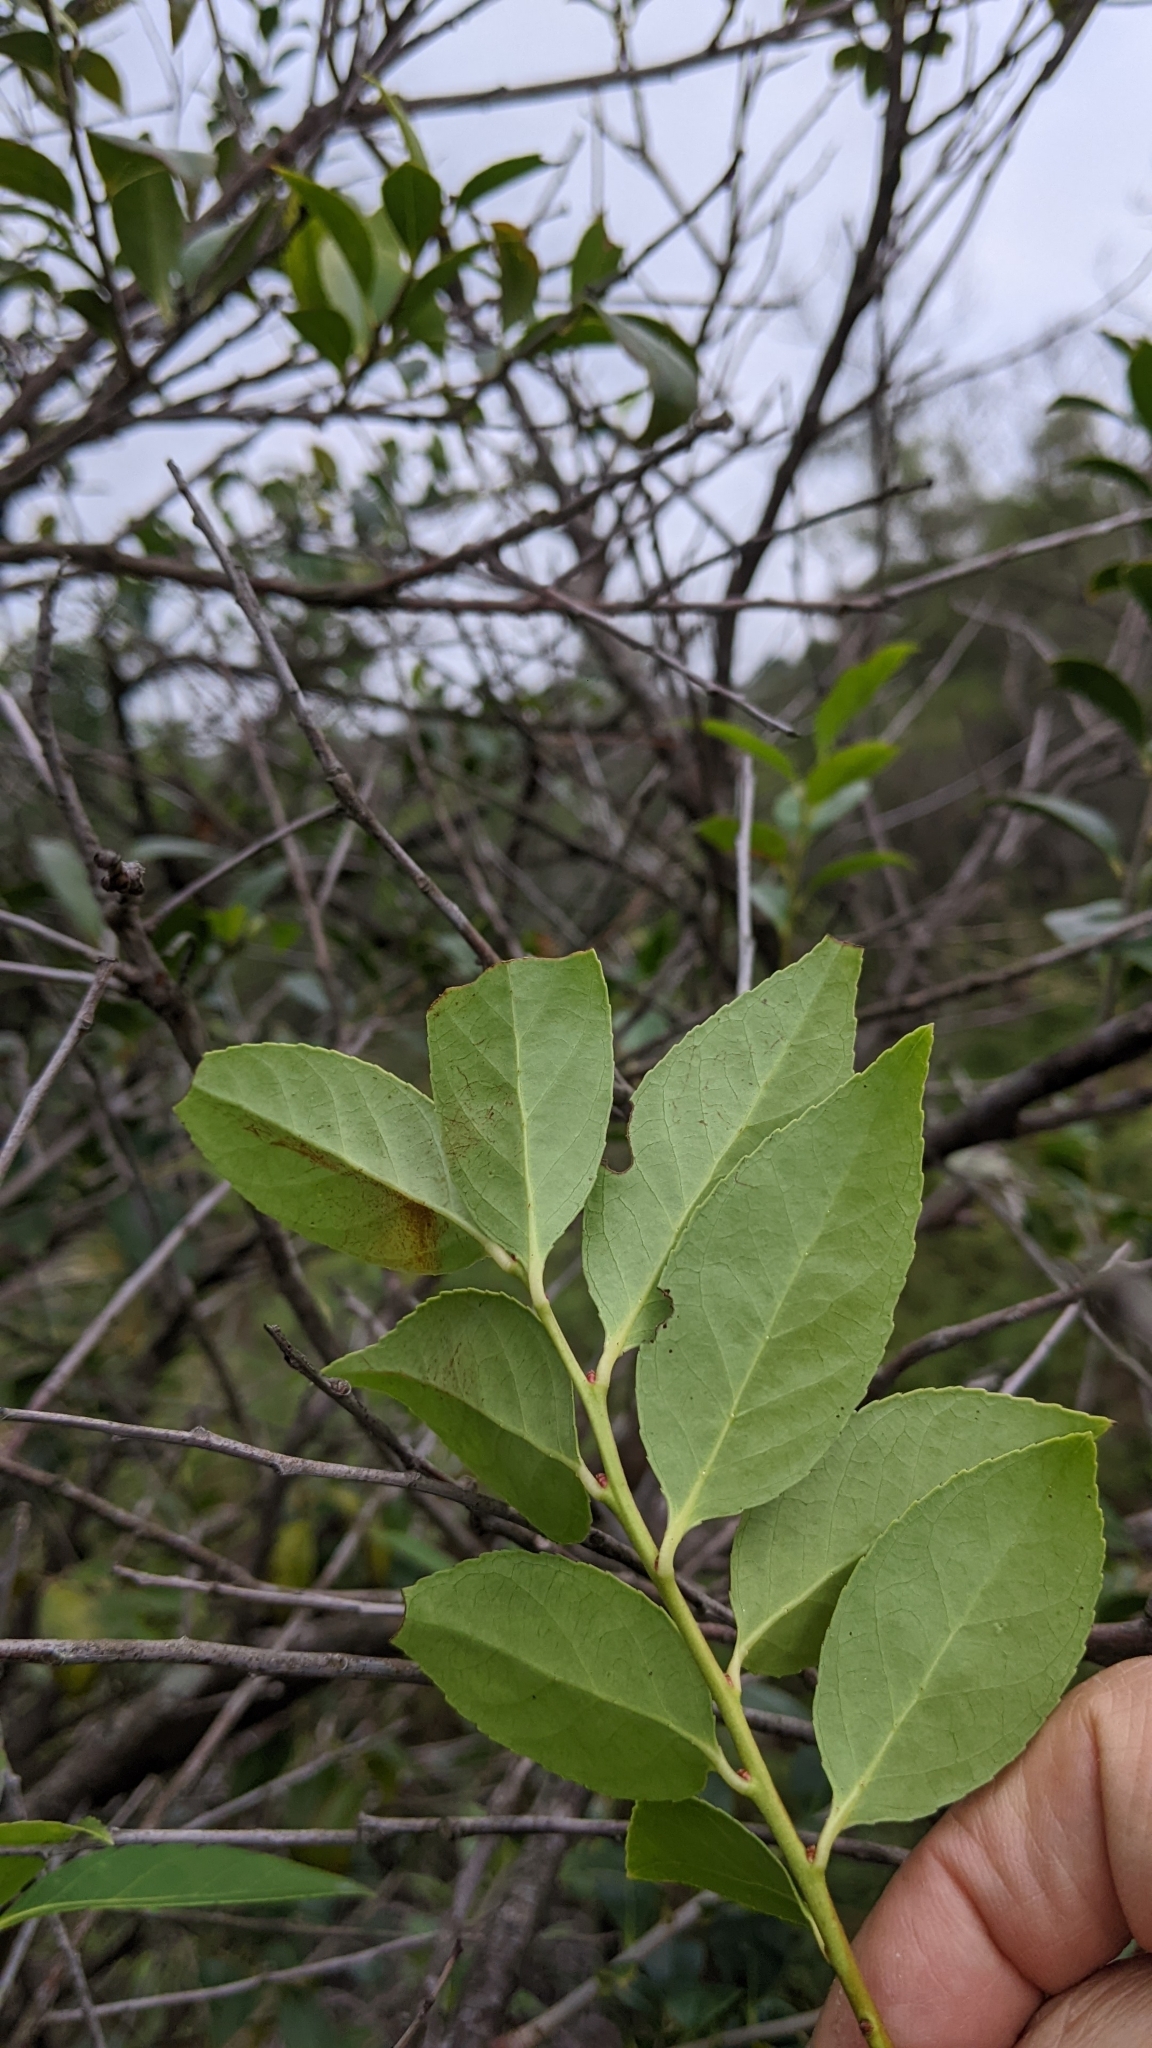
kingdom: Plantae
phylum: Tracheophyta
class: Magnoliopsida
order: Ericales
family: Ericaceae
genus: Vaccinium
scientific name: Vaccinium bracteatum
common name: Sea bilberry
